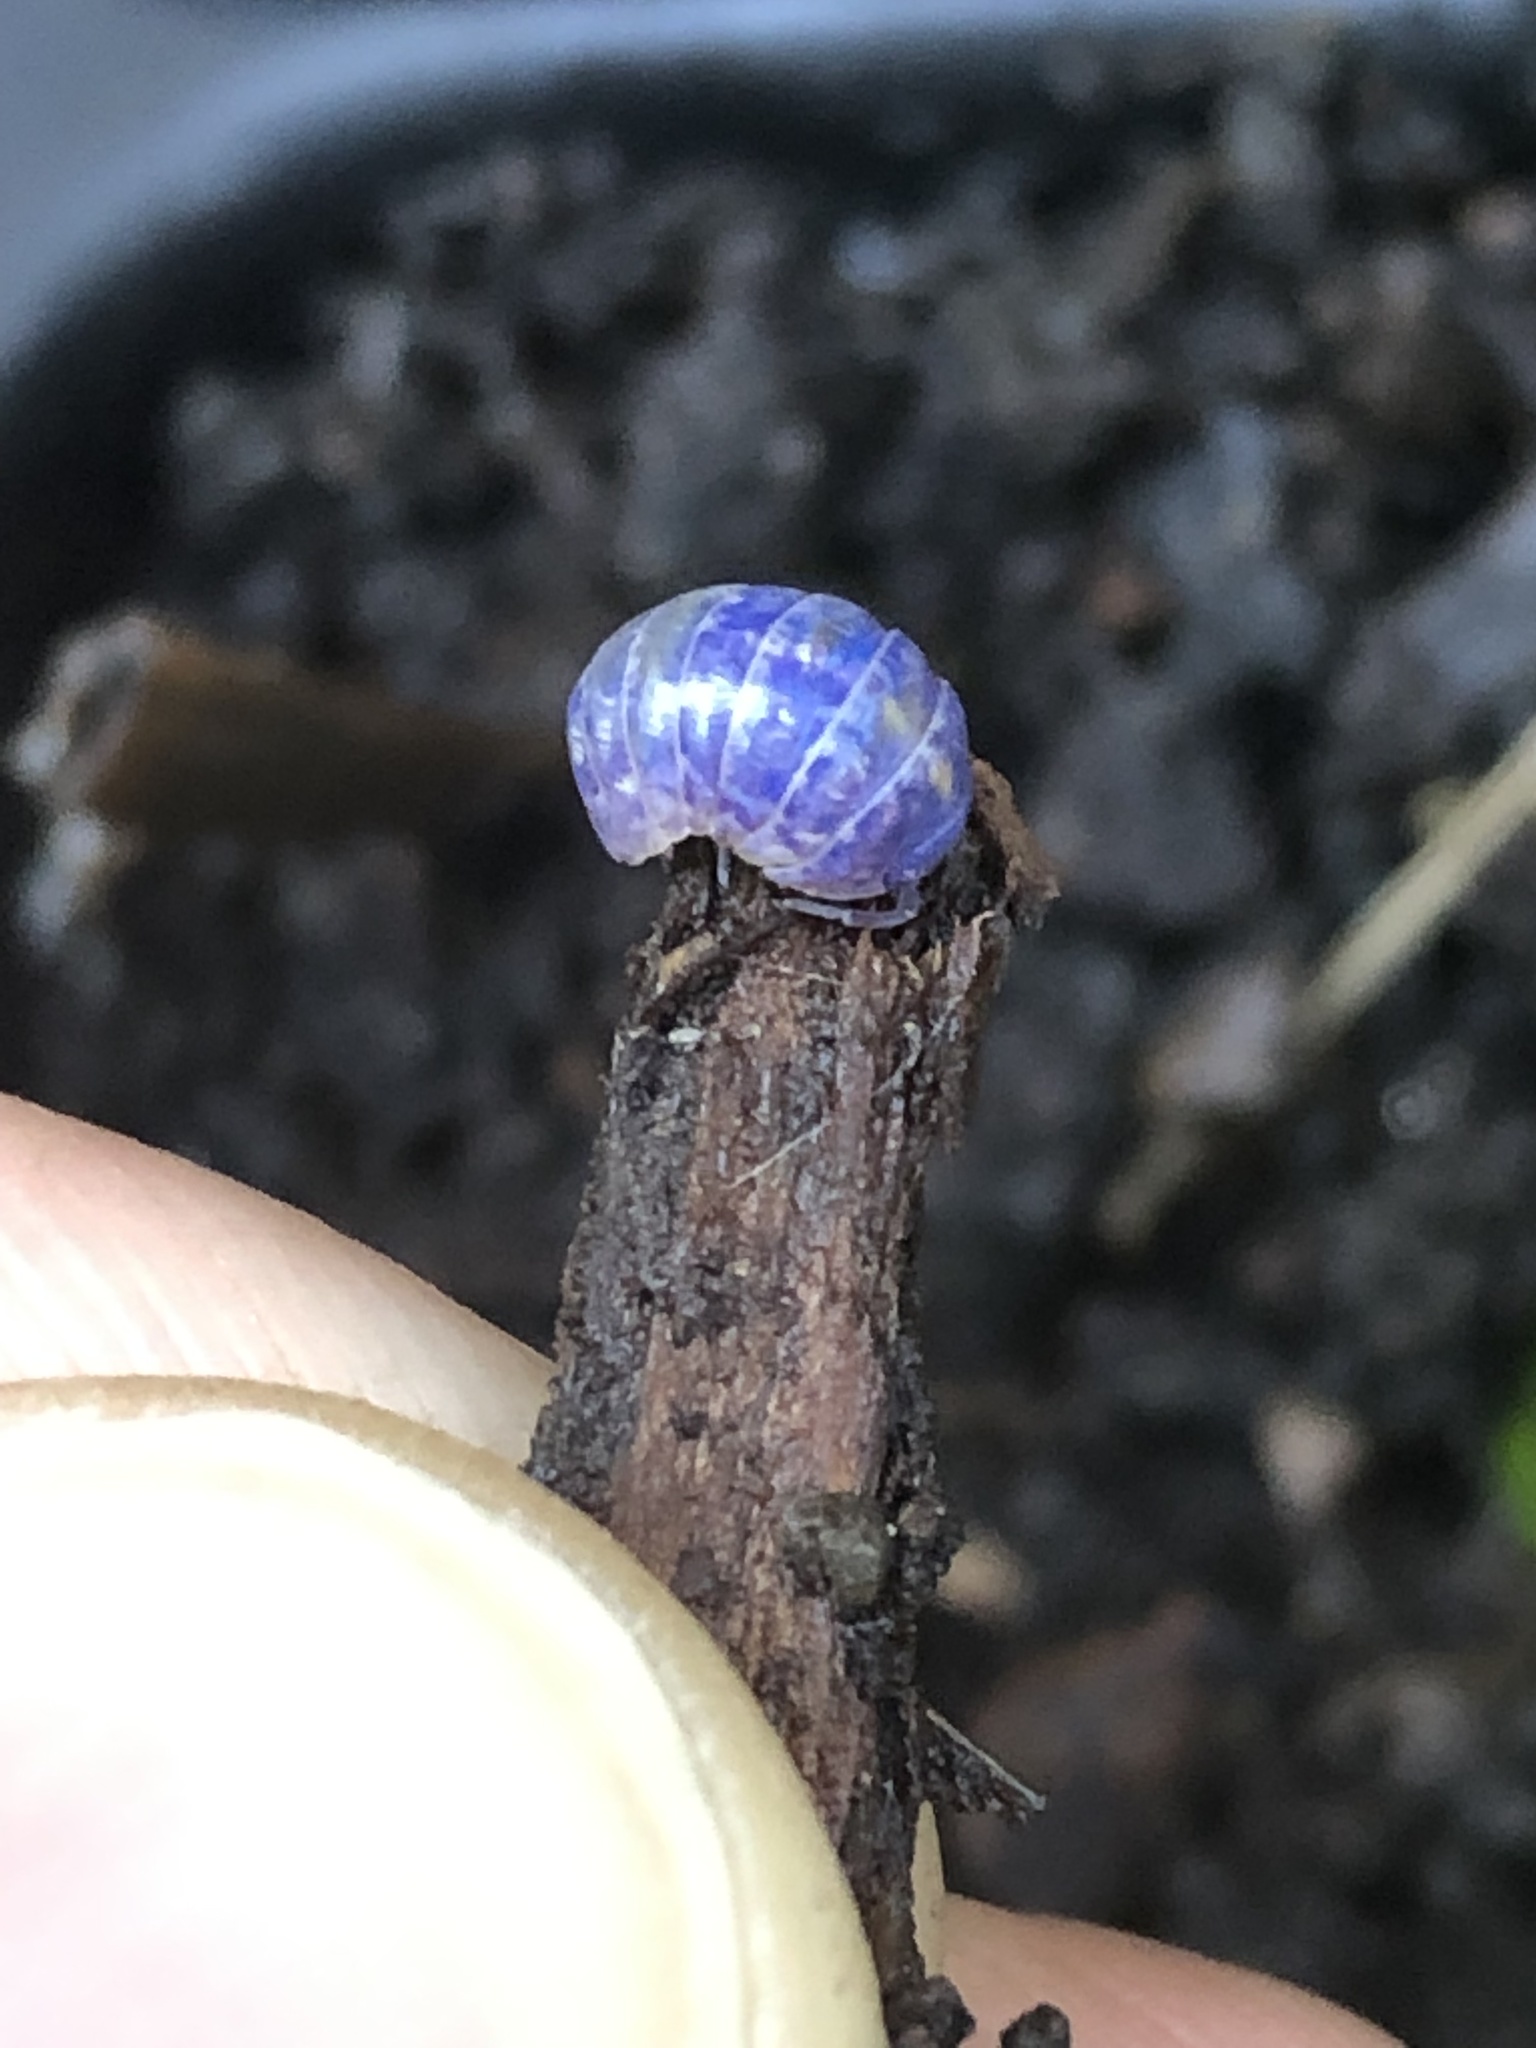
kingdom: Viruses
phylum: Nucleocytoviricota
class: Megaviricetes
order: Pimascovirales
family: Iridoviridae
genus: Iridovirus
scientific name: Iridovirus Invertebrate iridescent virus 31
